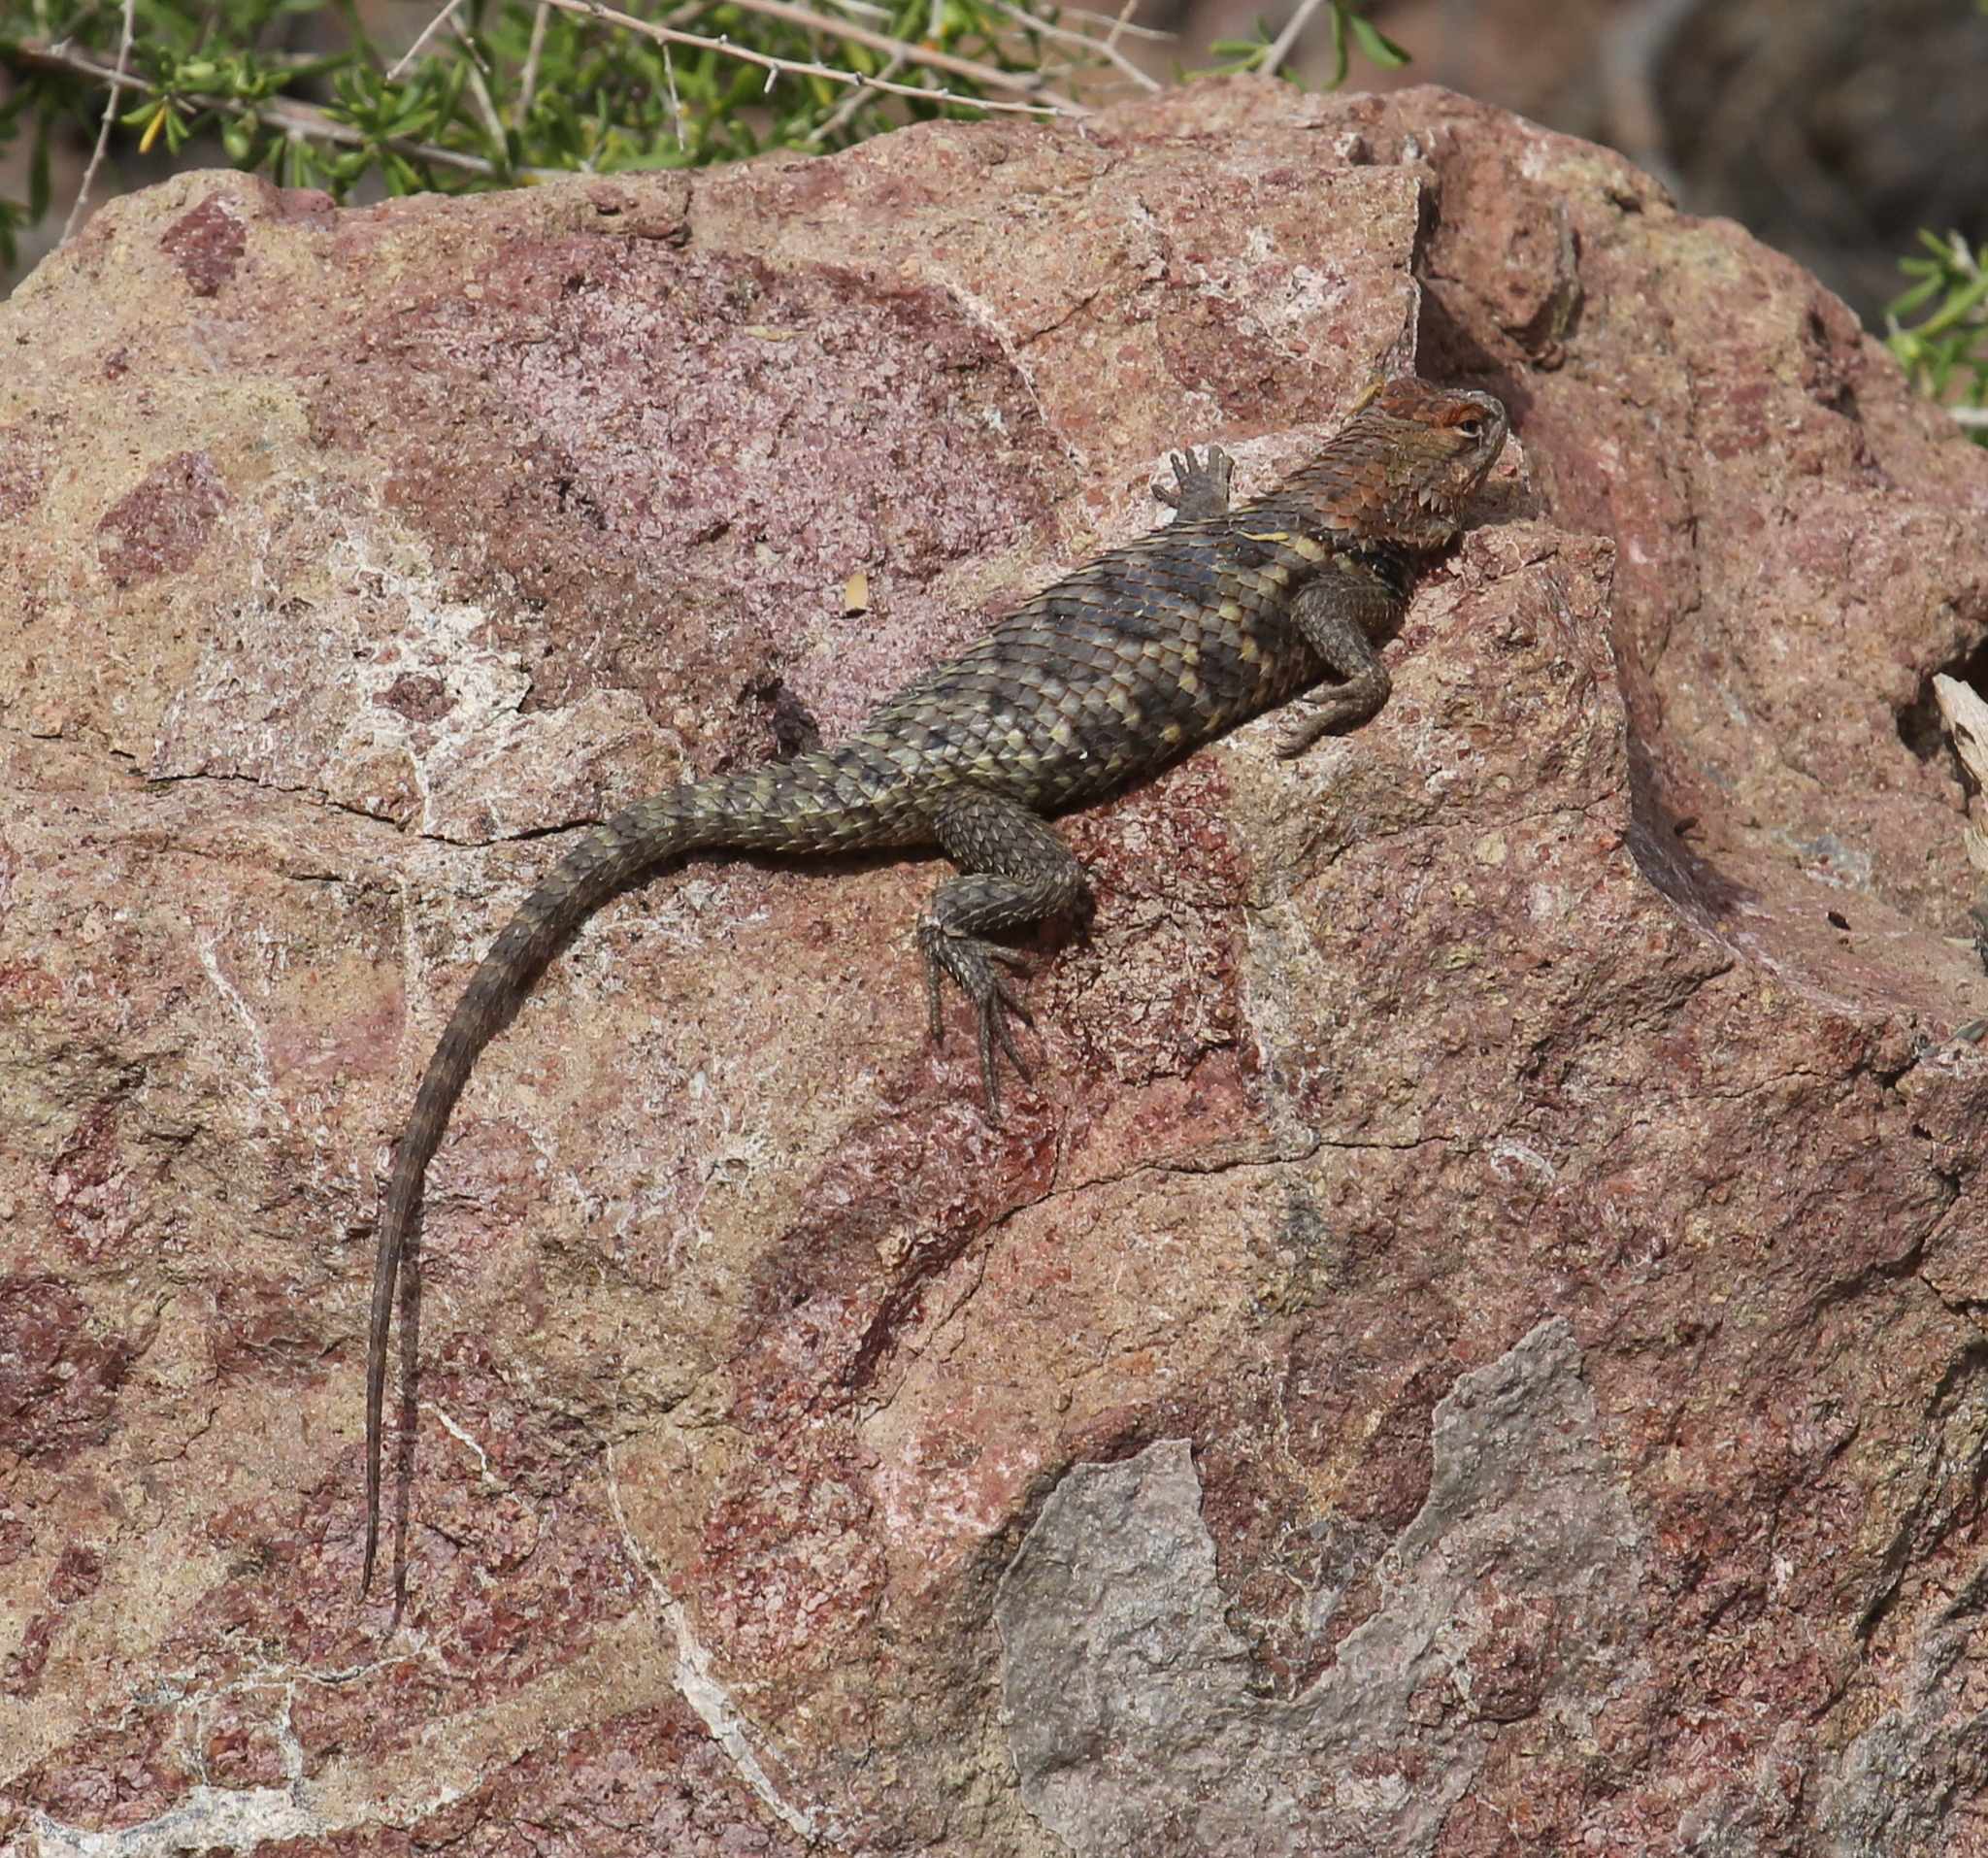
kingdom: Animalia
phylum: Chordata
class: Squamata
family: Phrynosomatidae
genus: Sceloporus
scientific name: Sceloporus magister
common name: Desert spiny lizard
